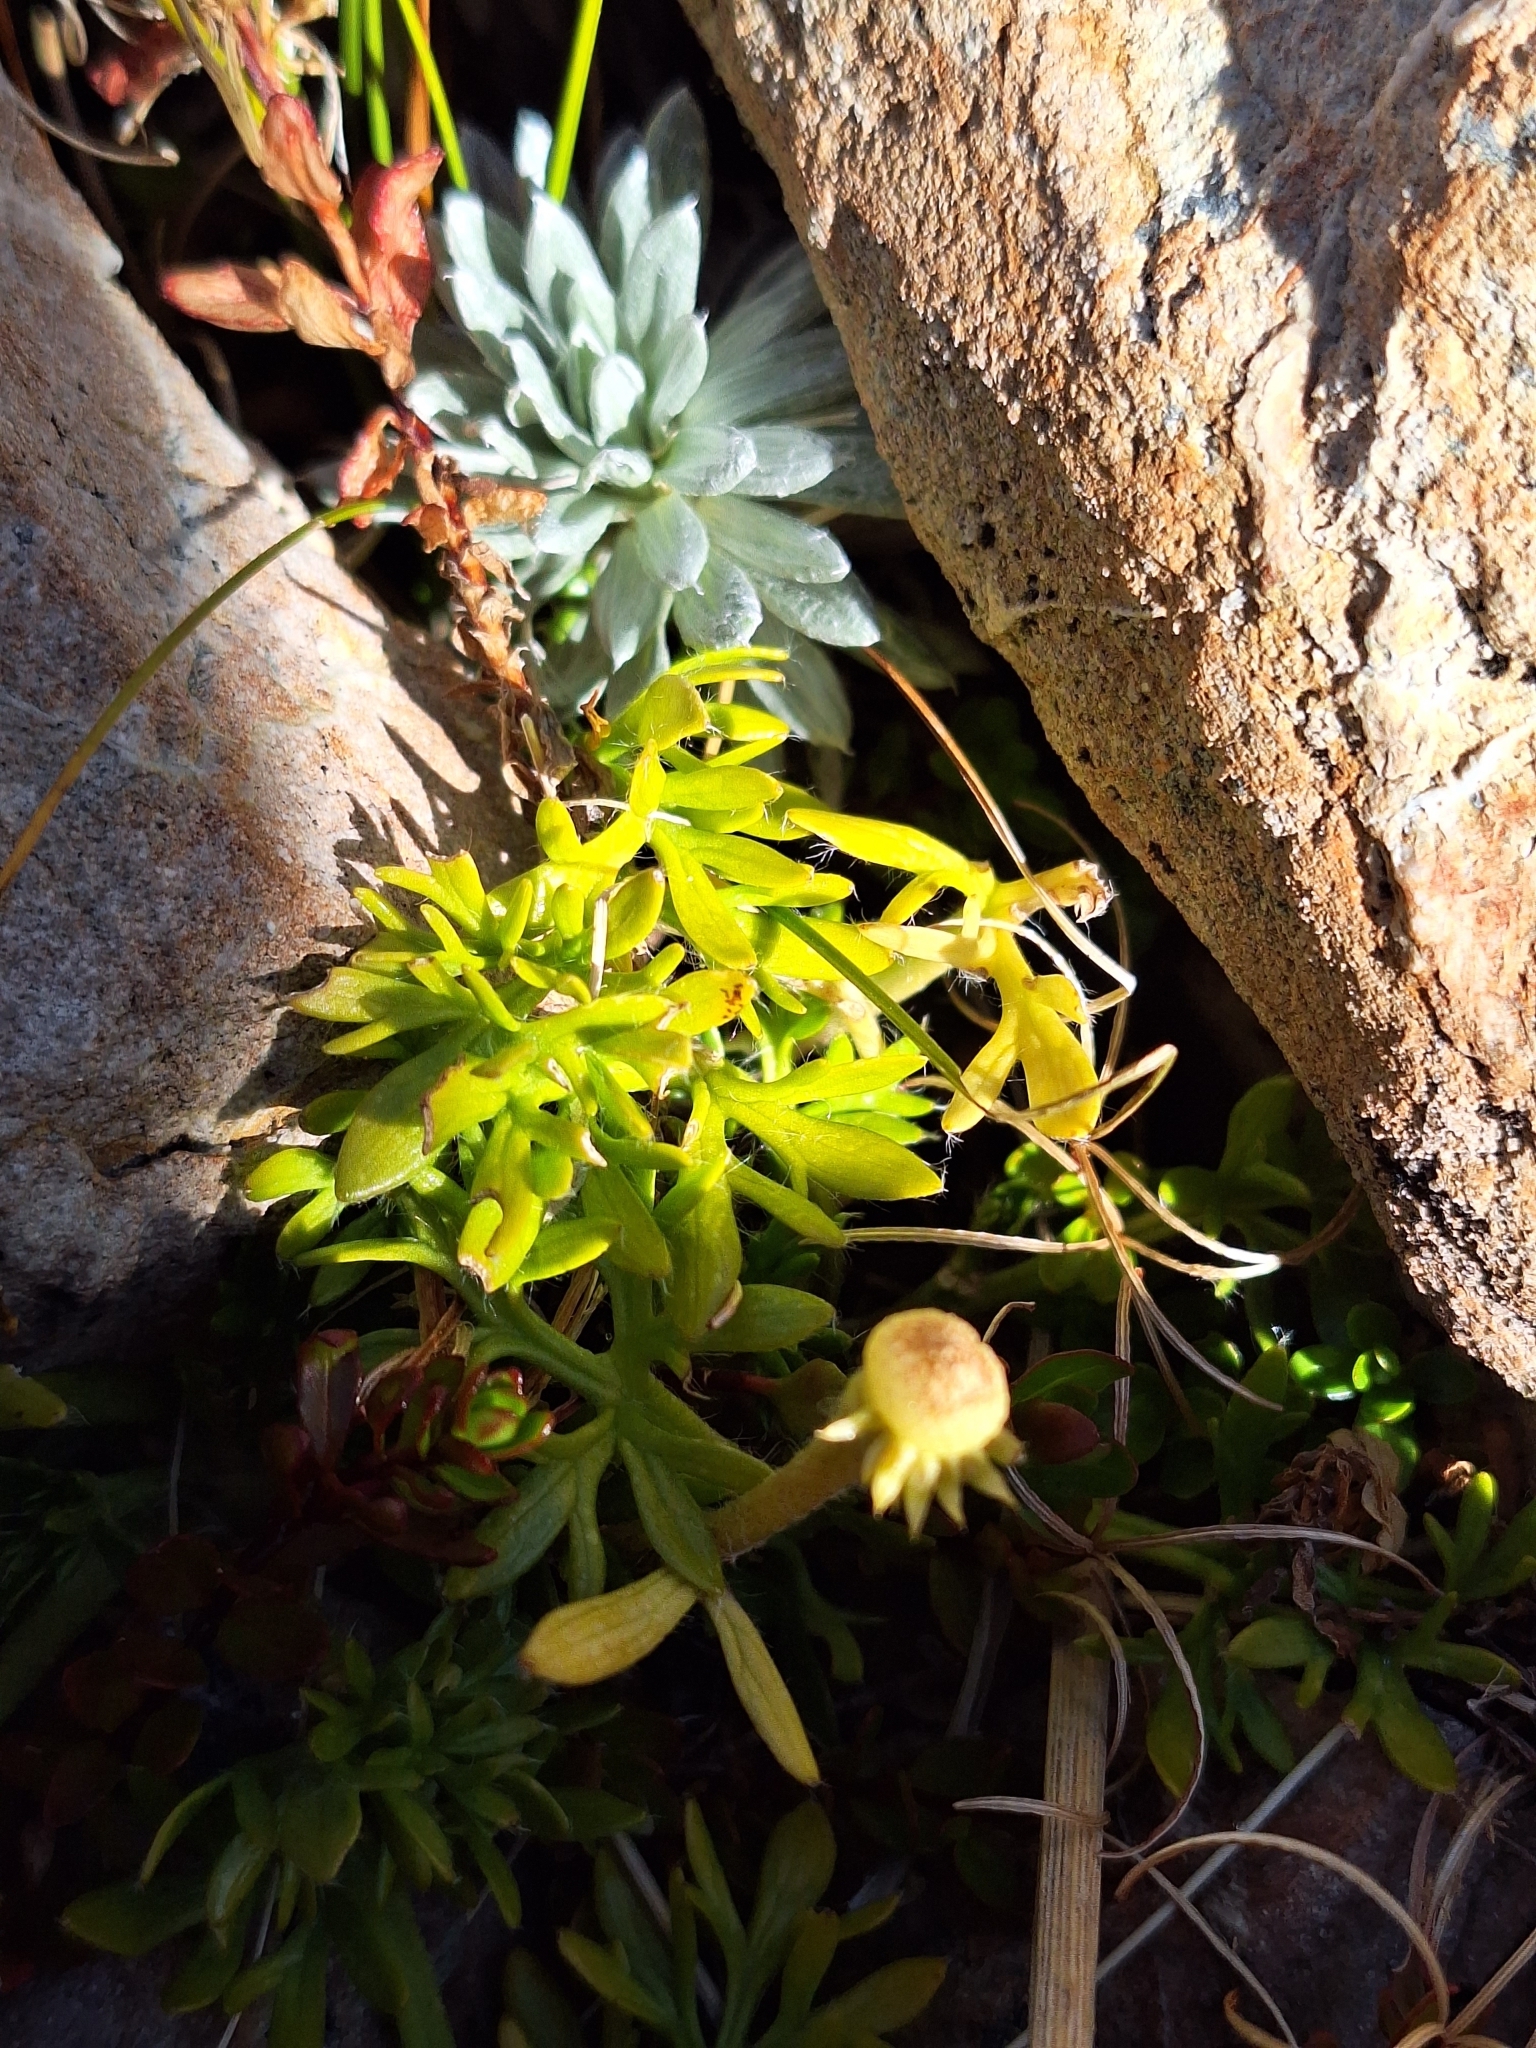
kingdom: Plantae
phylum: Tracheophyta
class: Magnoliopsida
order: Ranunculales
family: Ranunculaceae
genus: Ranunculus
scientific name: Ranunculus sericophyllus
